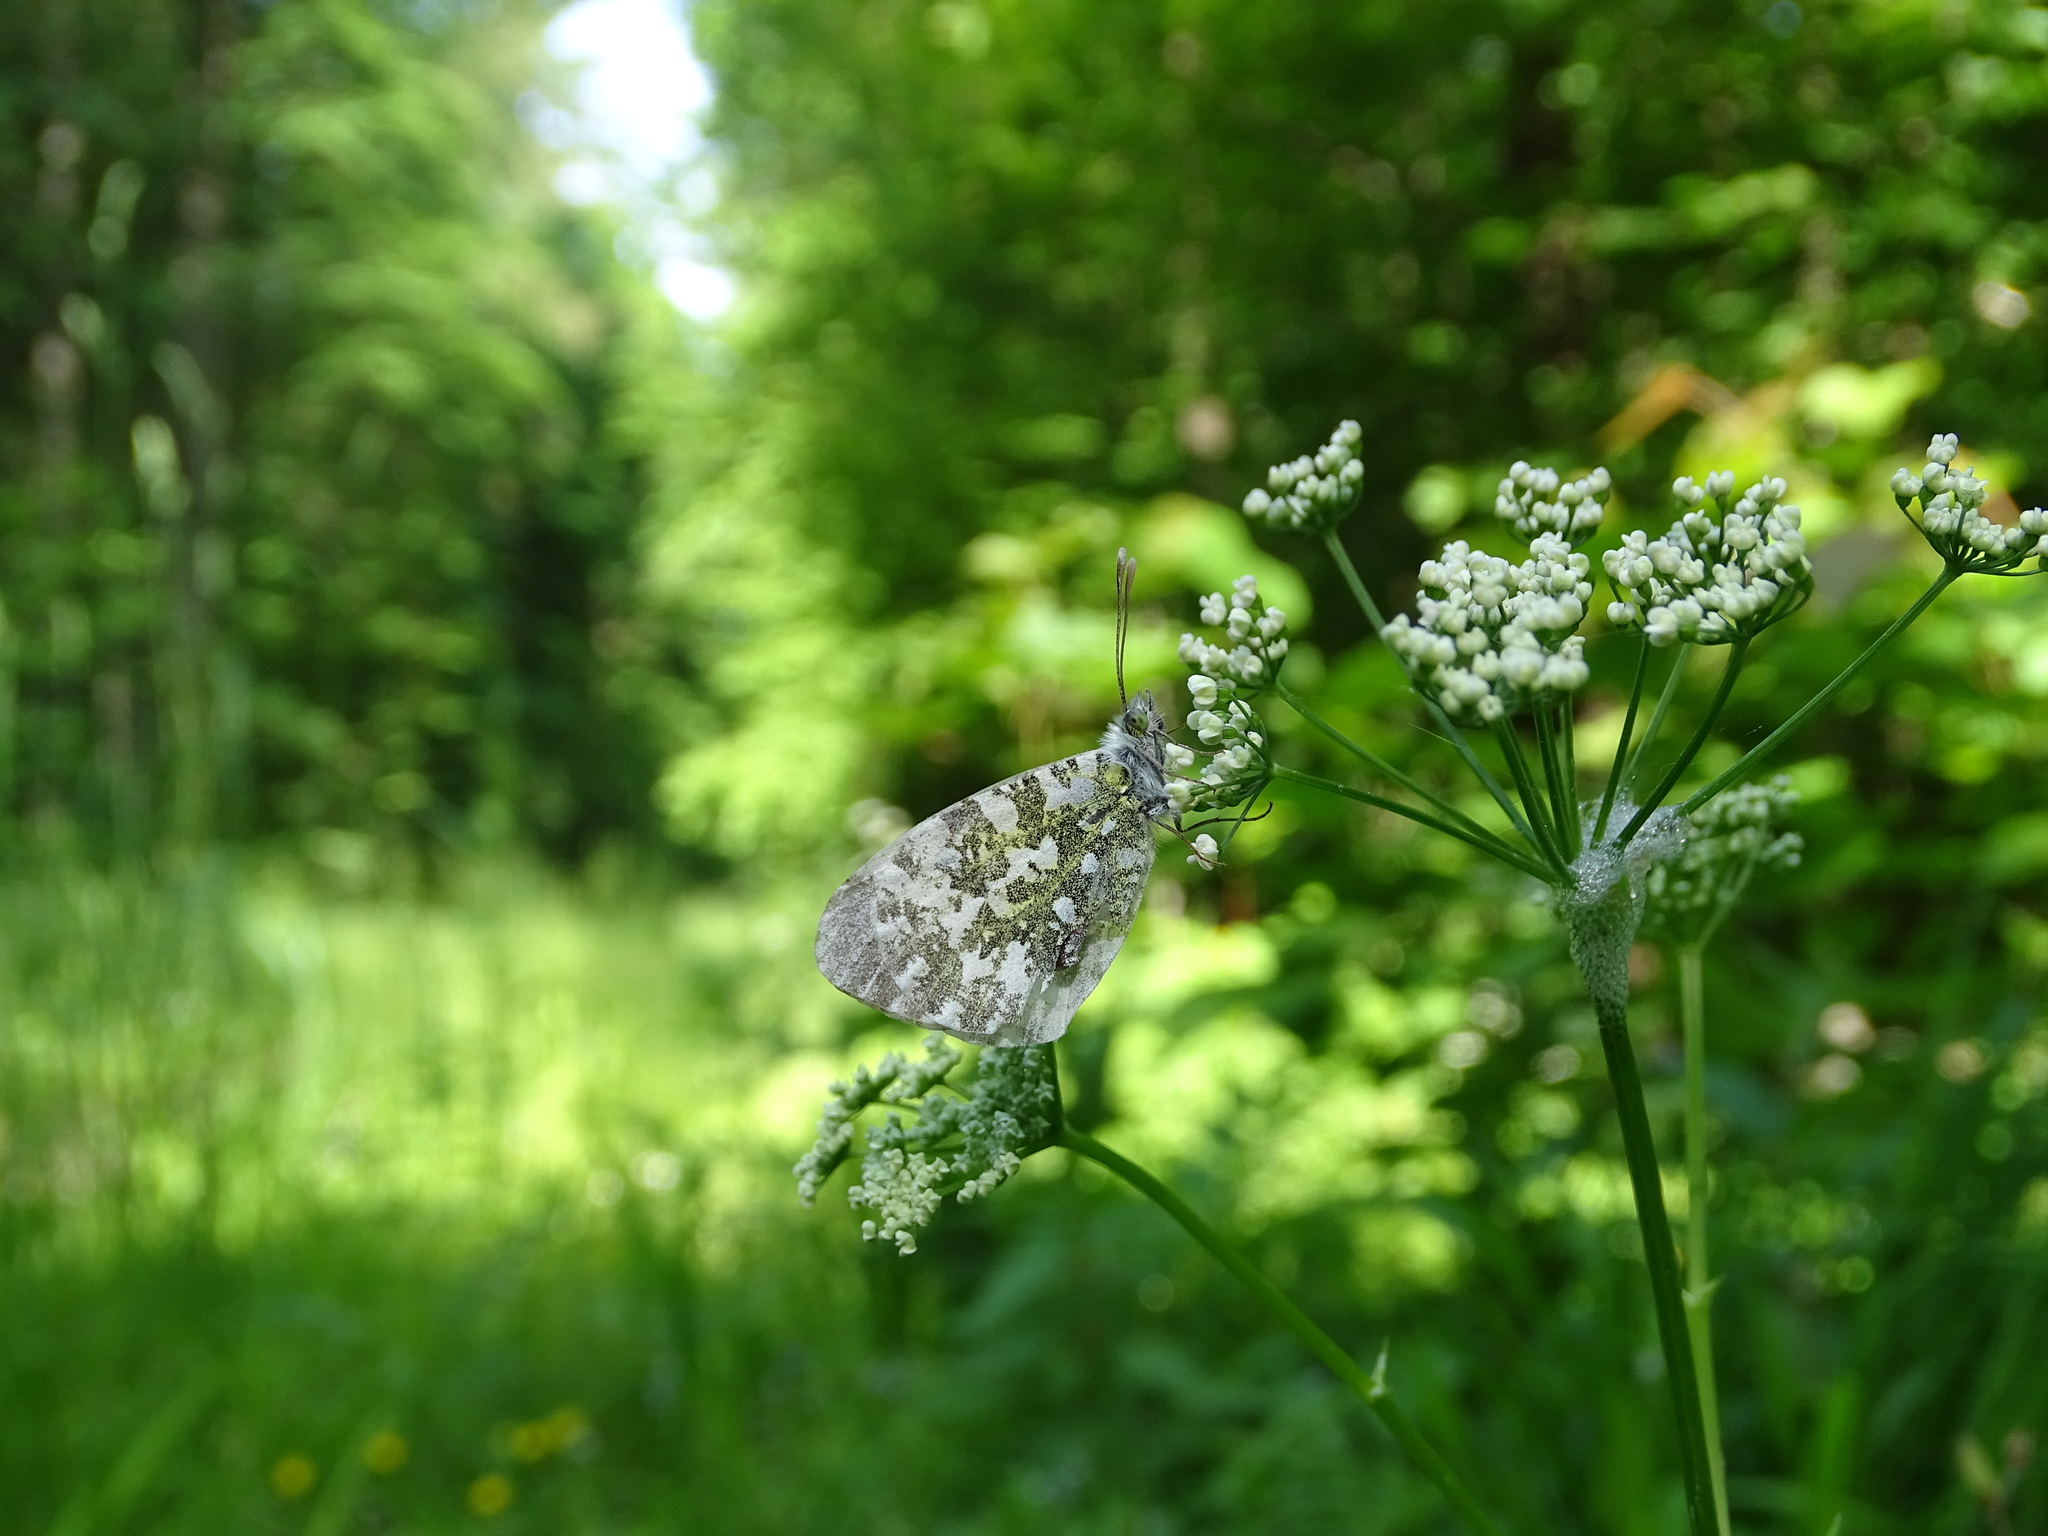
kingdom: Animalia
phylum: Arthropoda
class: Insecta
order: Lepidoptera
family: Pieridae
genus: Anthocharis
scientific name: Anthocharis cardamines
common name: Orange-tip
